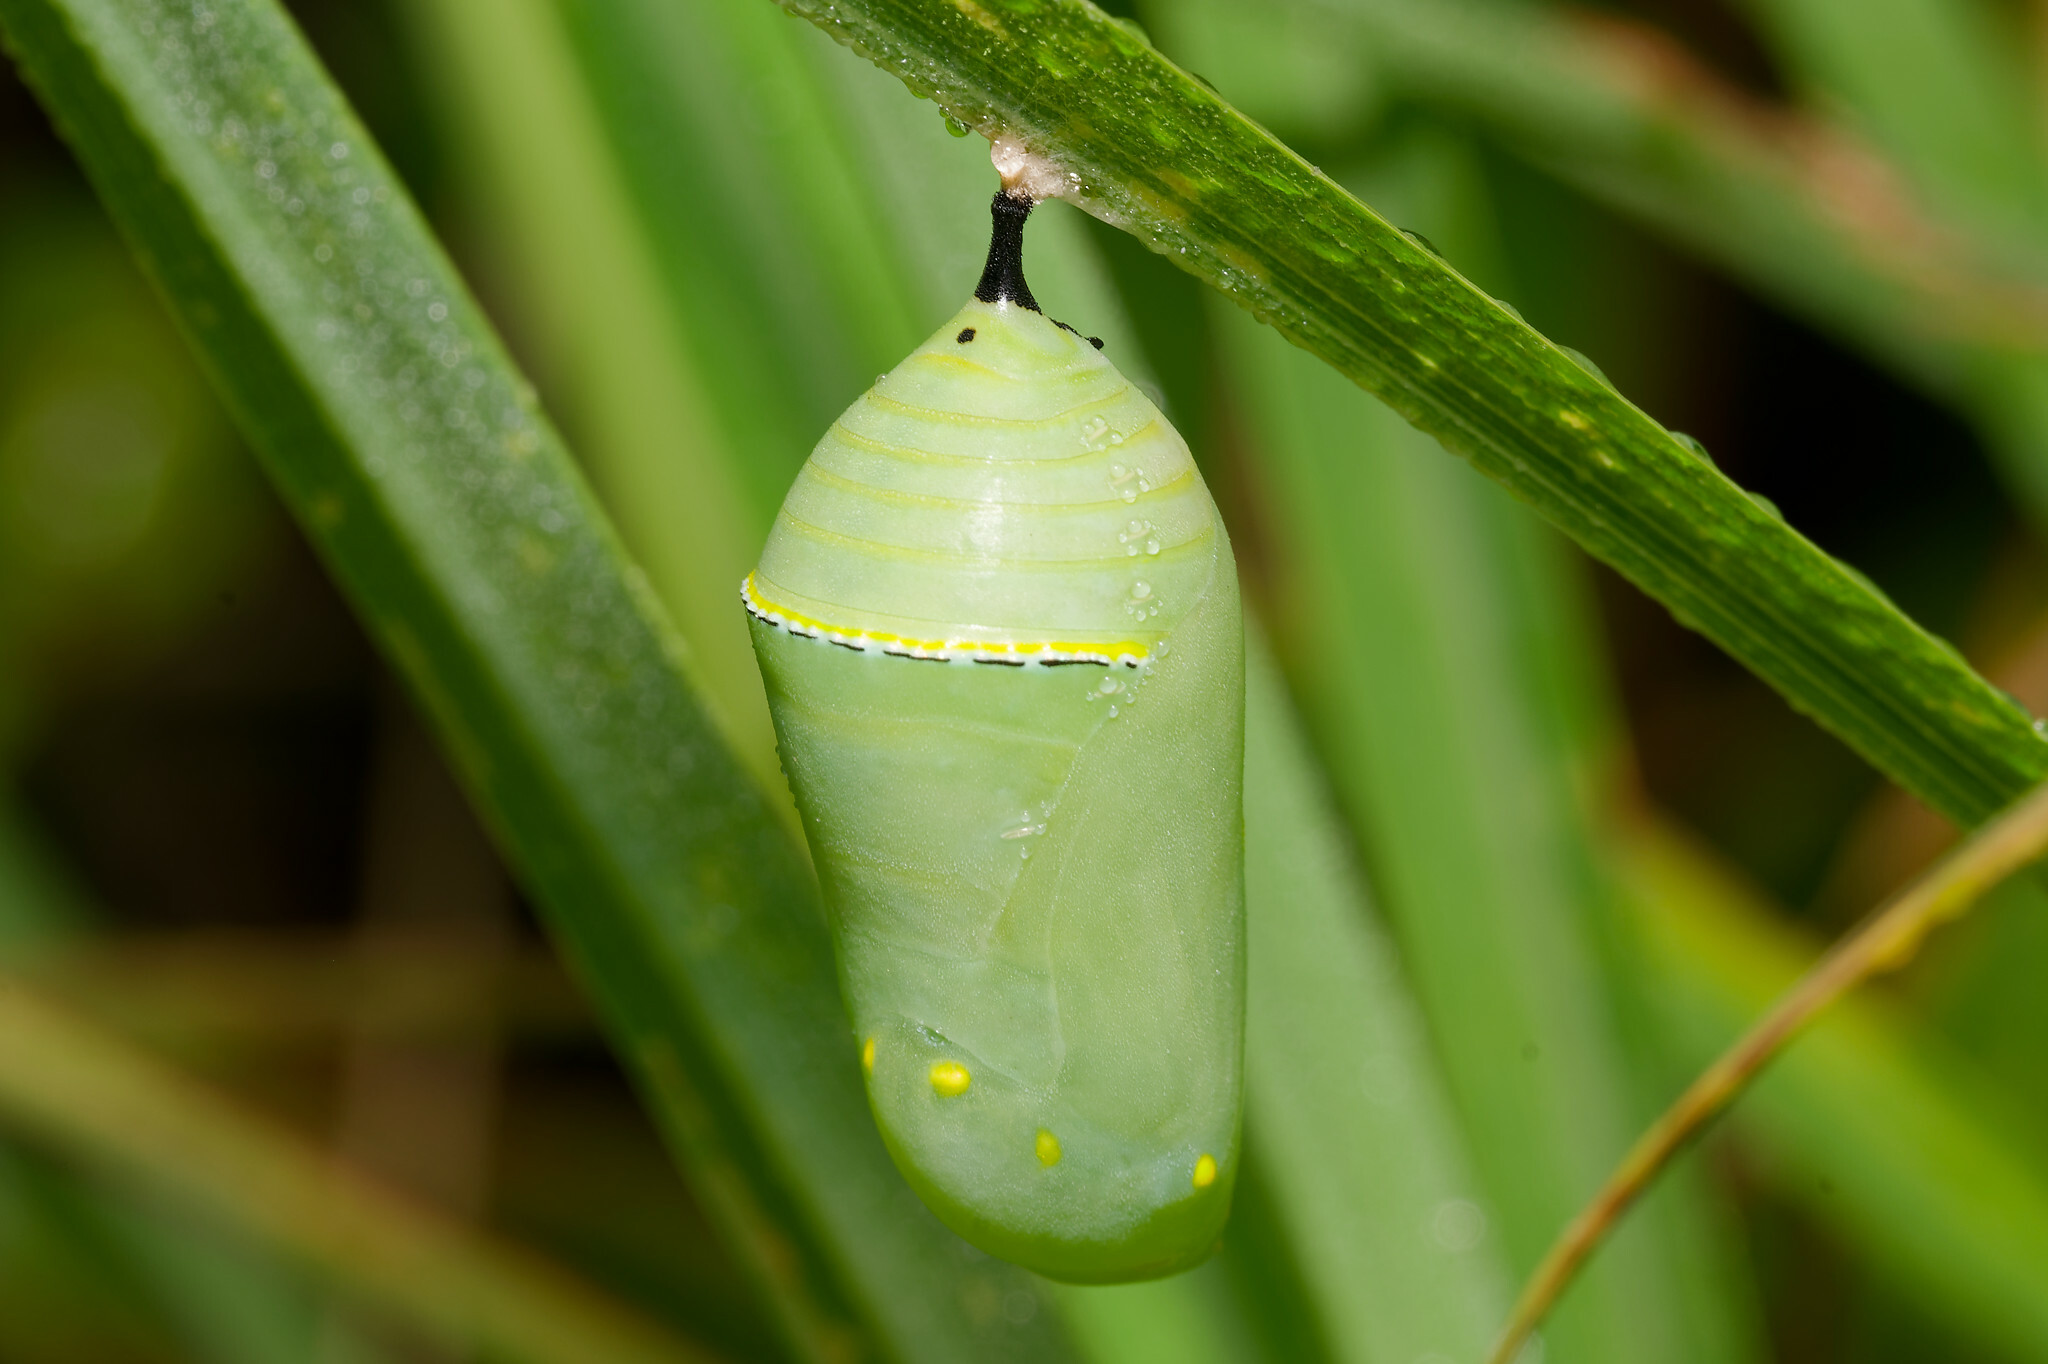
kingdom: Animalia
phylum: Arthropoda
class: Insecta
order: Lepidoptera
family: Nymphalidae
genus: Danaus
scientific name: Danaus plexippus
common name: Monarch
